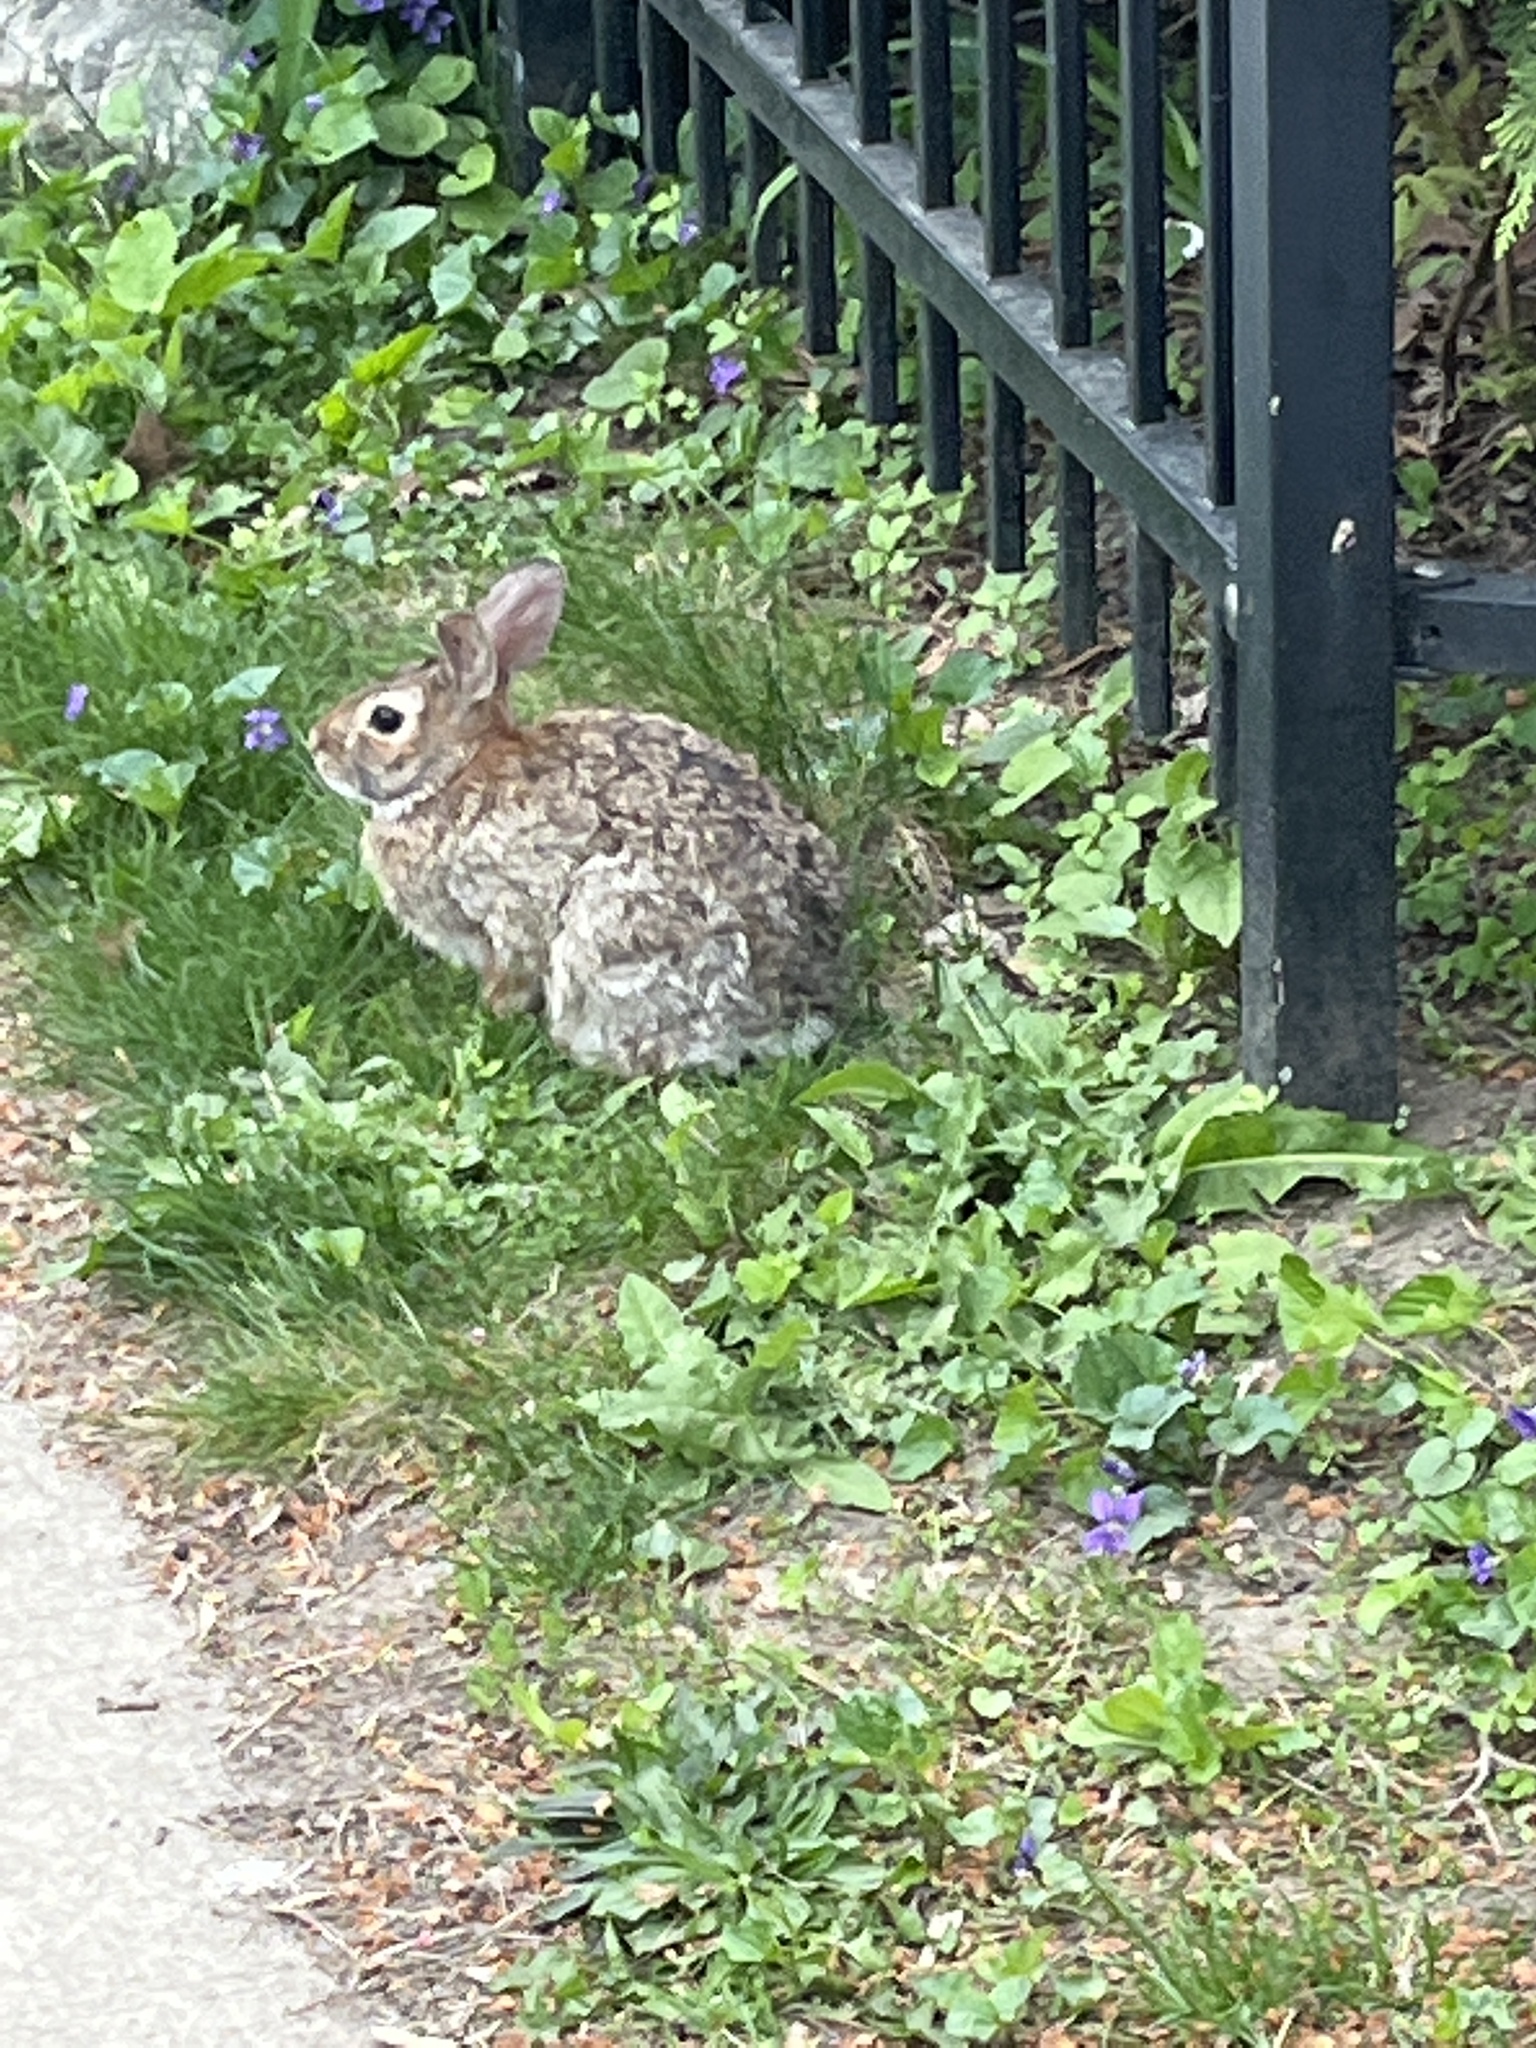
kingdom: Animalia
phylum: Chordata
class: Mammalia
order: Lagomorpha
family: Leporidae
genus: Sylvilagus
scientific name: Sylvilagus floridanus
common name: Eastern cottontail
